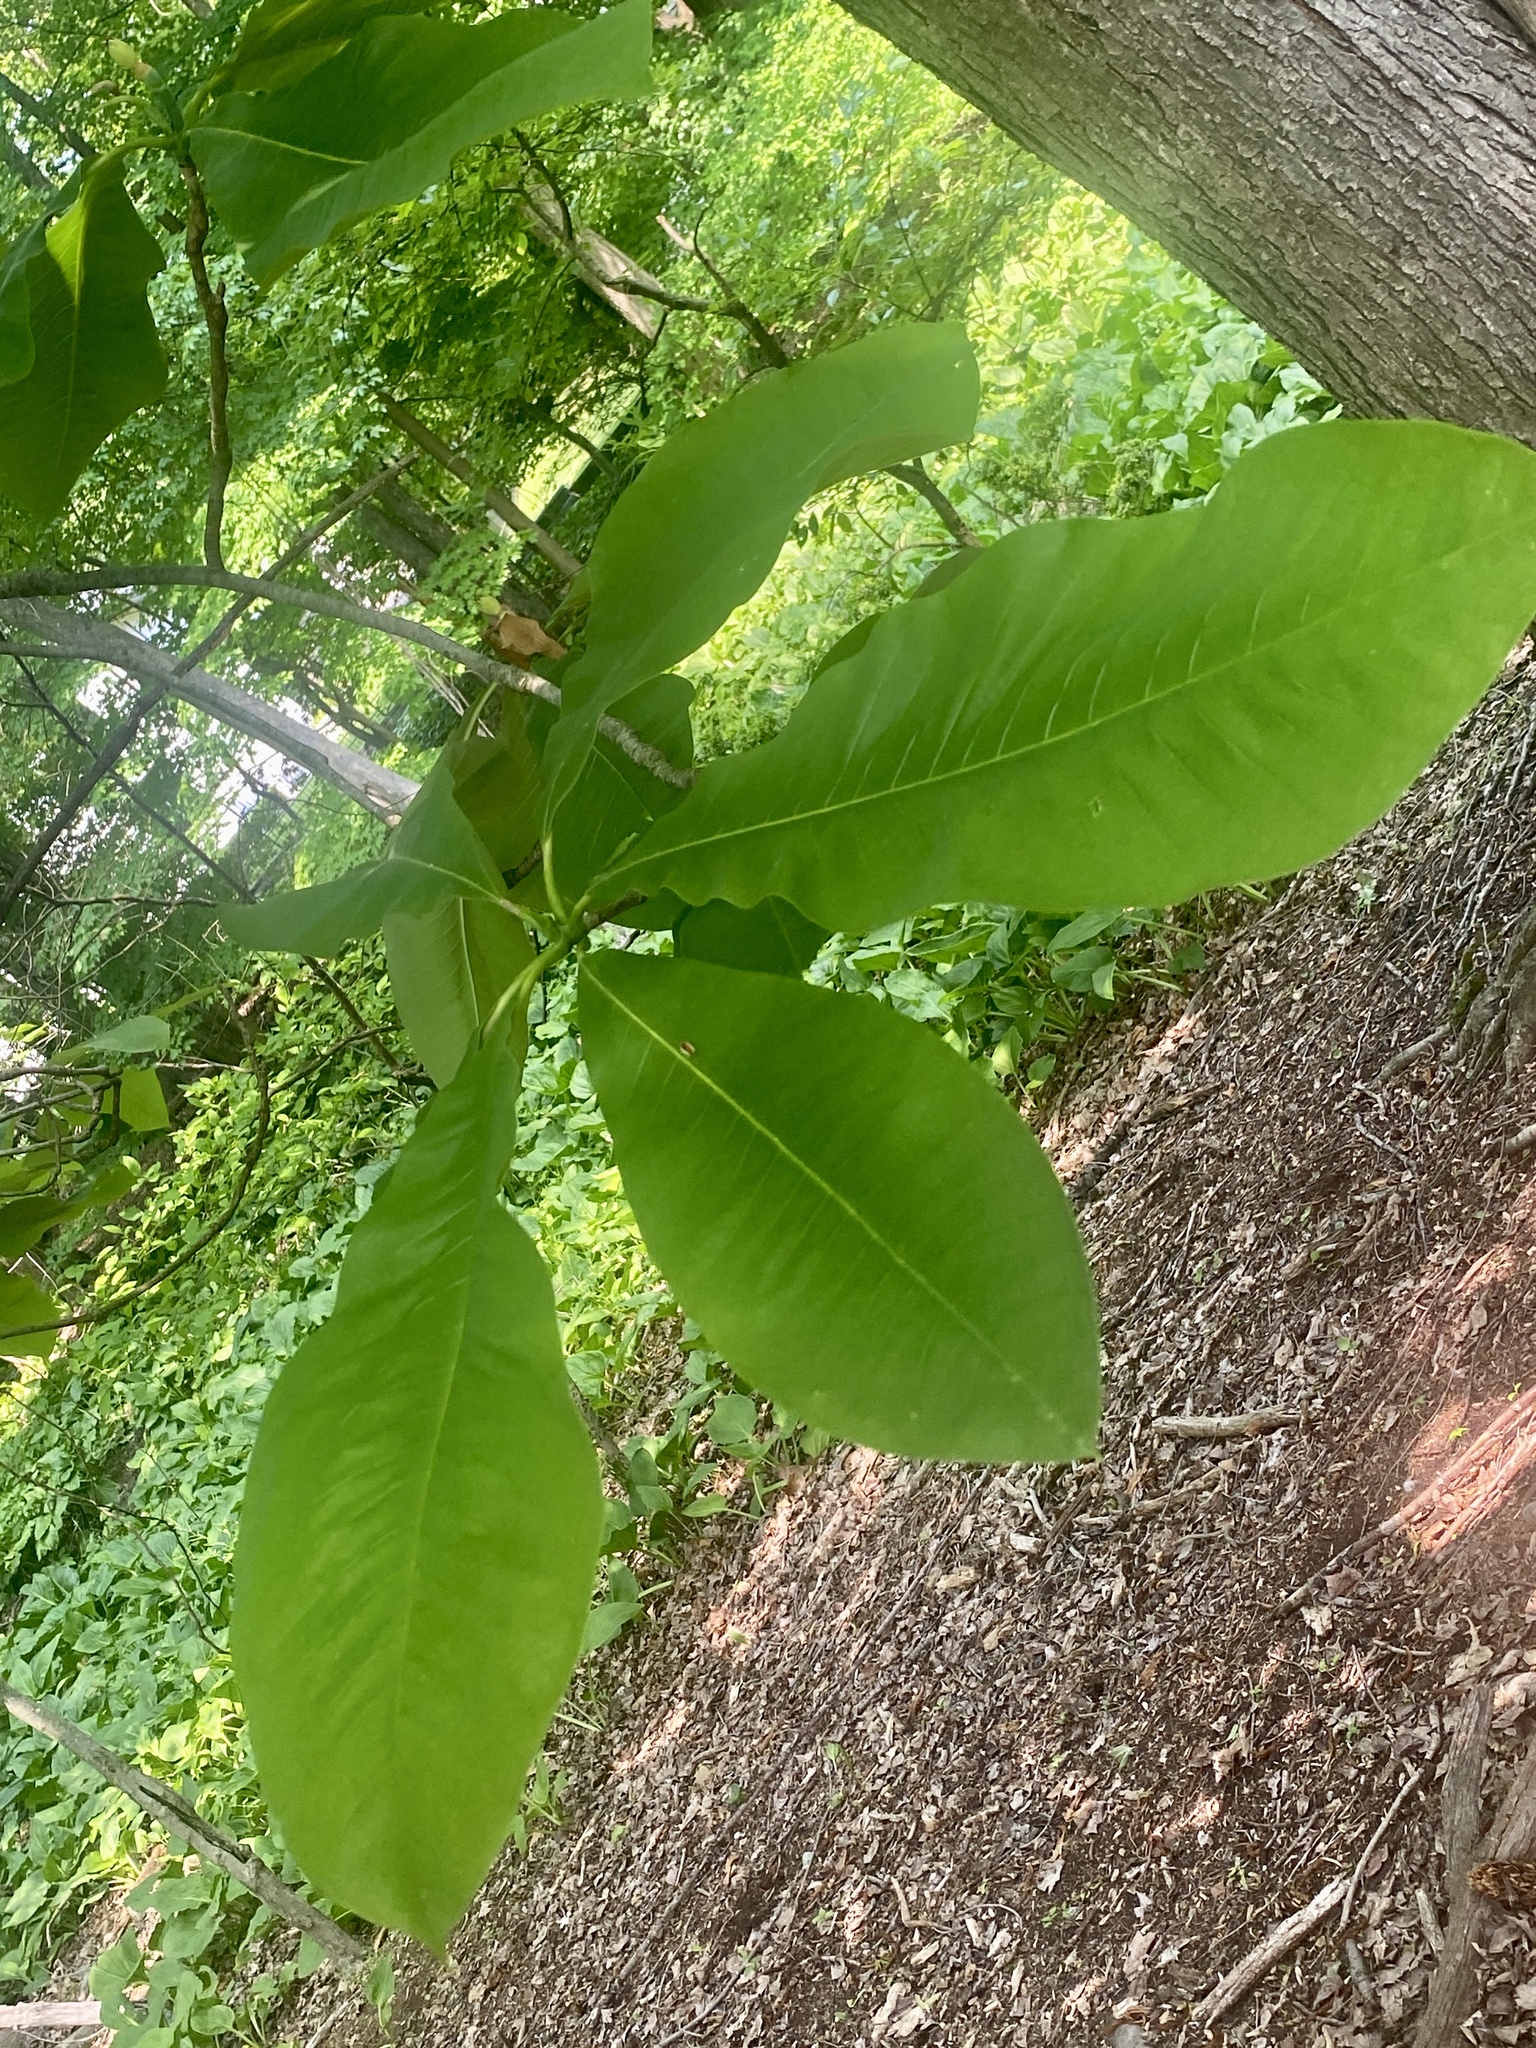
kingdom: Plantae
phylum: Tracheophyta
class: Magnoliopsida
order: Magnoliales
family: Magnoliaceae
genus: Magnolia
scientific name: Magnolia tripetala
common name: Umbrella magnolia
